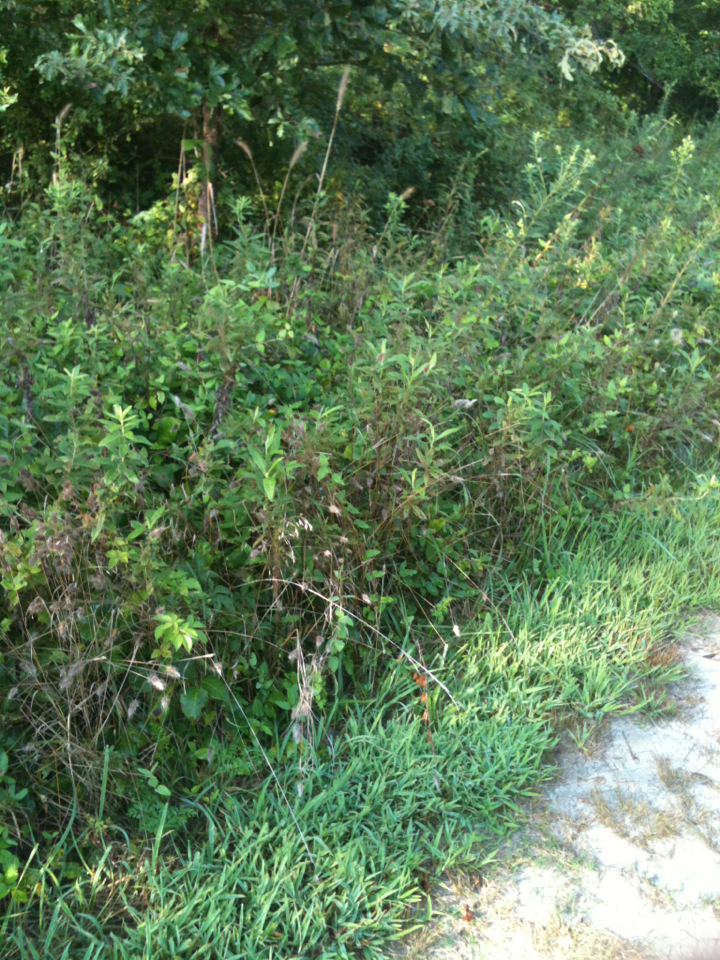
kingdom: Plantae
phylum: Tracheophyta
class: Liliopsida
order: Poales
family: Poaceae
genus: Cynosurus
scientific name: Cynosurus echinatus
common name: Rough dog's-tail
